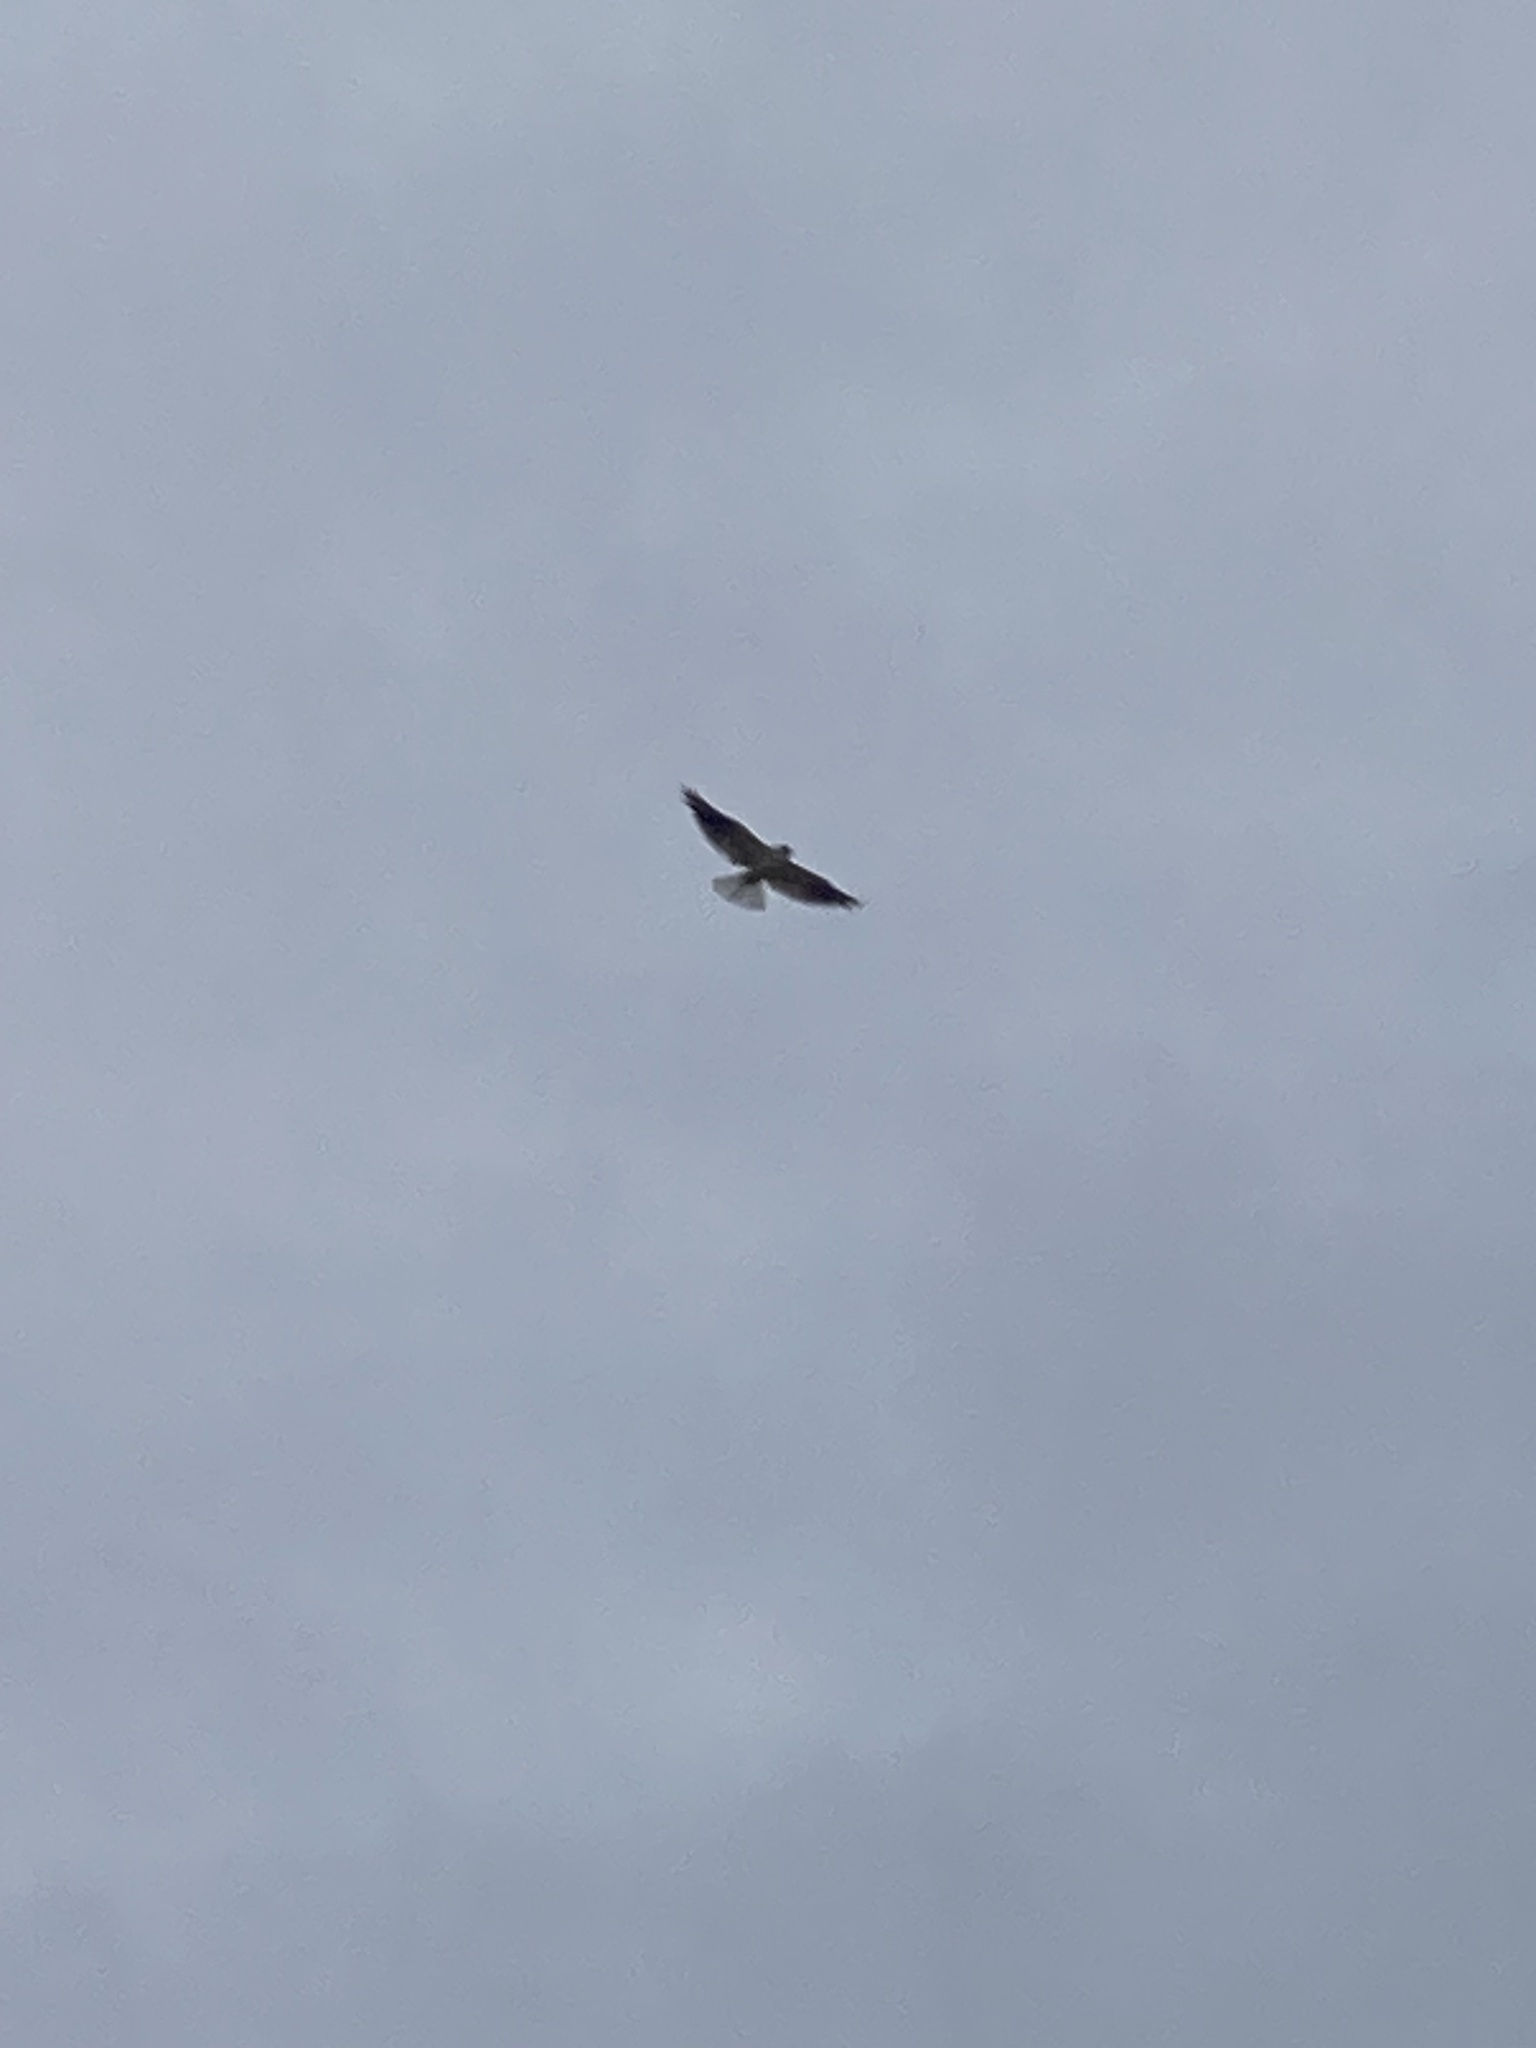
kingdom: Animalia
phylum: Chordata
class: Aves
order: Accipitriformes
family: Accipitridae
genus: Elanus
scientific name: Elanus axillaris
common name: Black-shouldered kite
